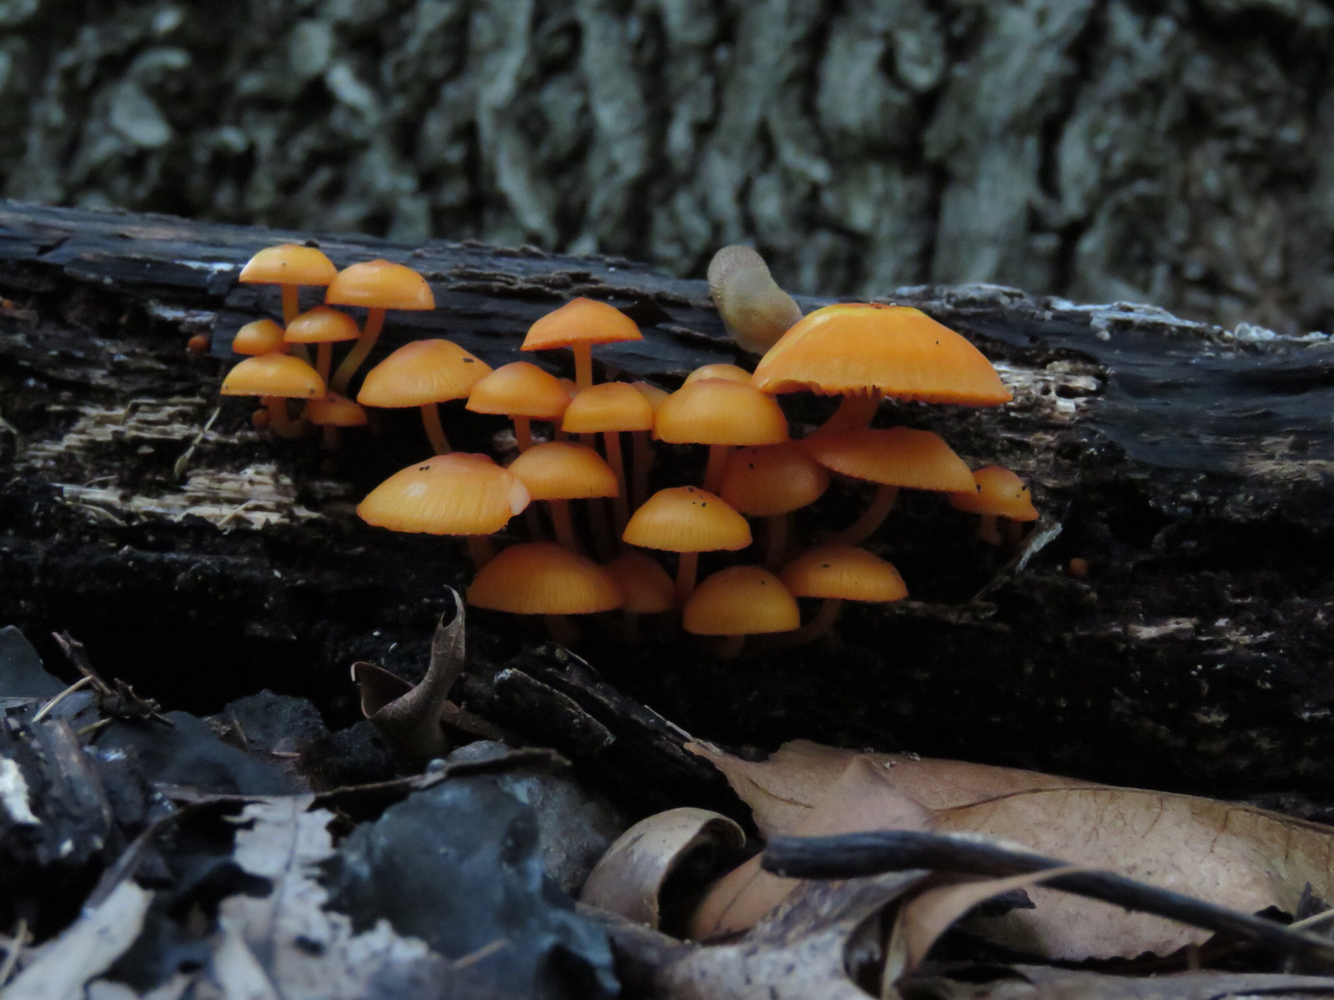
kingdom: Fungi
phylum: Basidiomycota
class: Agaricomycetes
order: Agaricales
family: Mycenaceae
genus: Mycena
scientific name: Mycena leaiana
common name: Orange mycena
